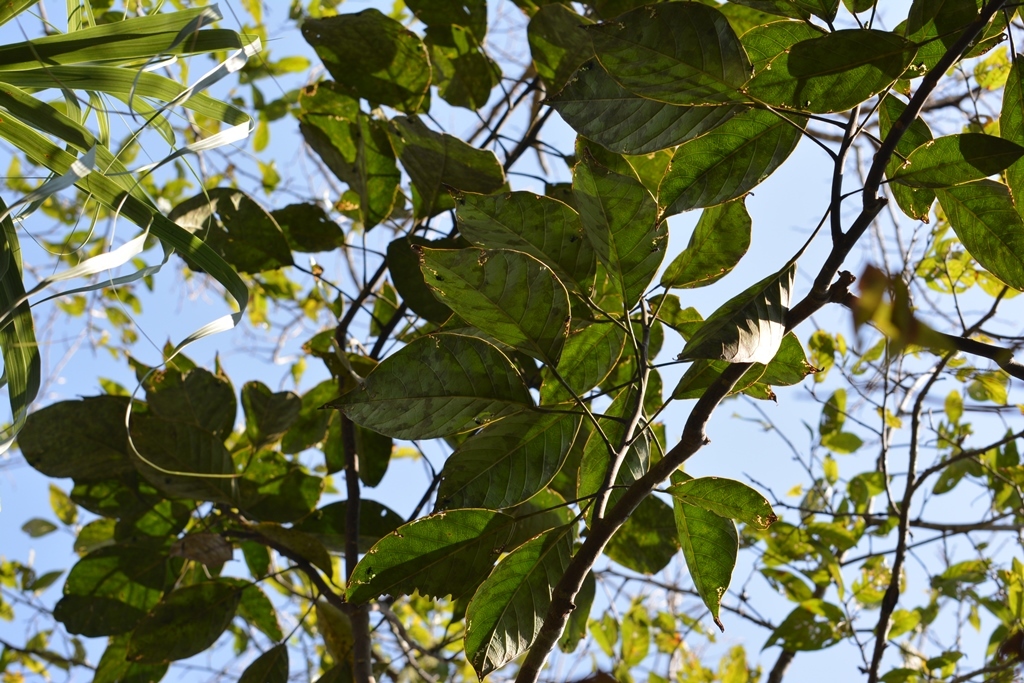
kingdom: Plantae
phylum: Tracheophyta
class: Magnoliopsida
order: Boraginales
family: Ehretiaceae
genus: Bourreria
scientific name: Bourreria huanita
